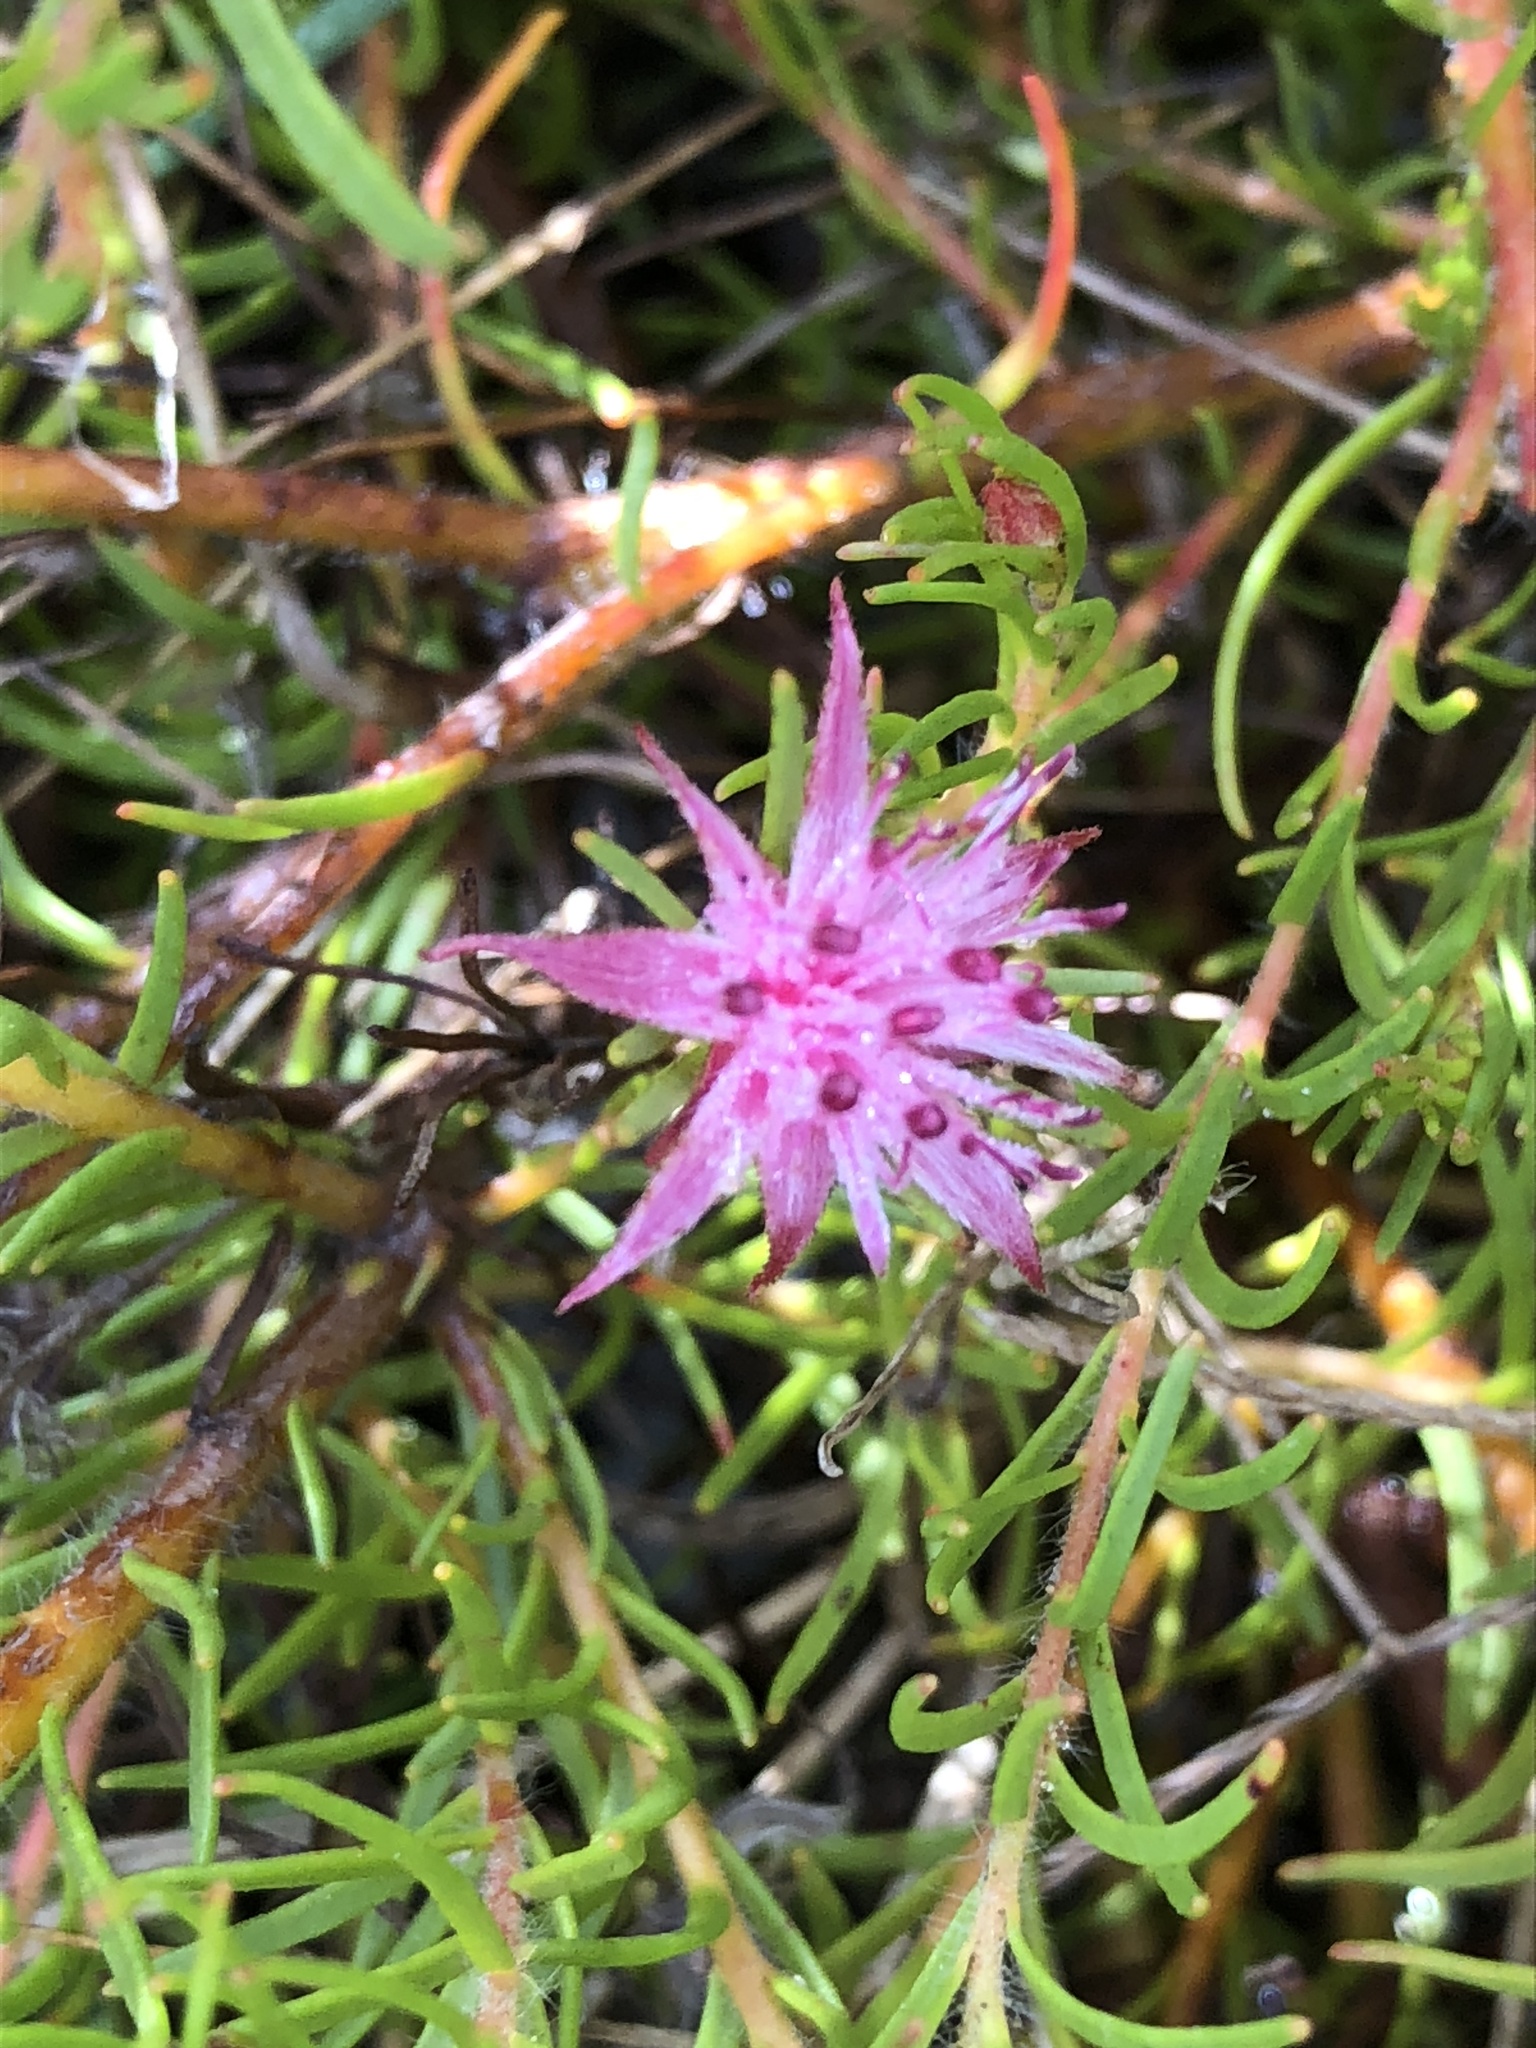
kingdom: Plantae
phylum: Tracheophyta
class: Magnoliopsida
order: Proteales
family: Proteaceae
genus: Diastella
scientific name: Diastella proteoides
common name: Flats silkypuff
